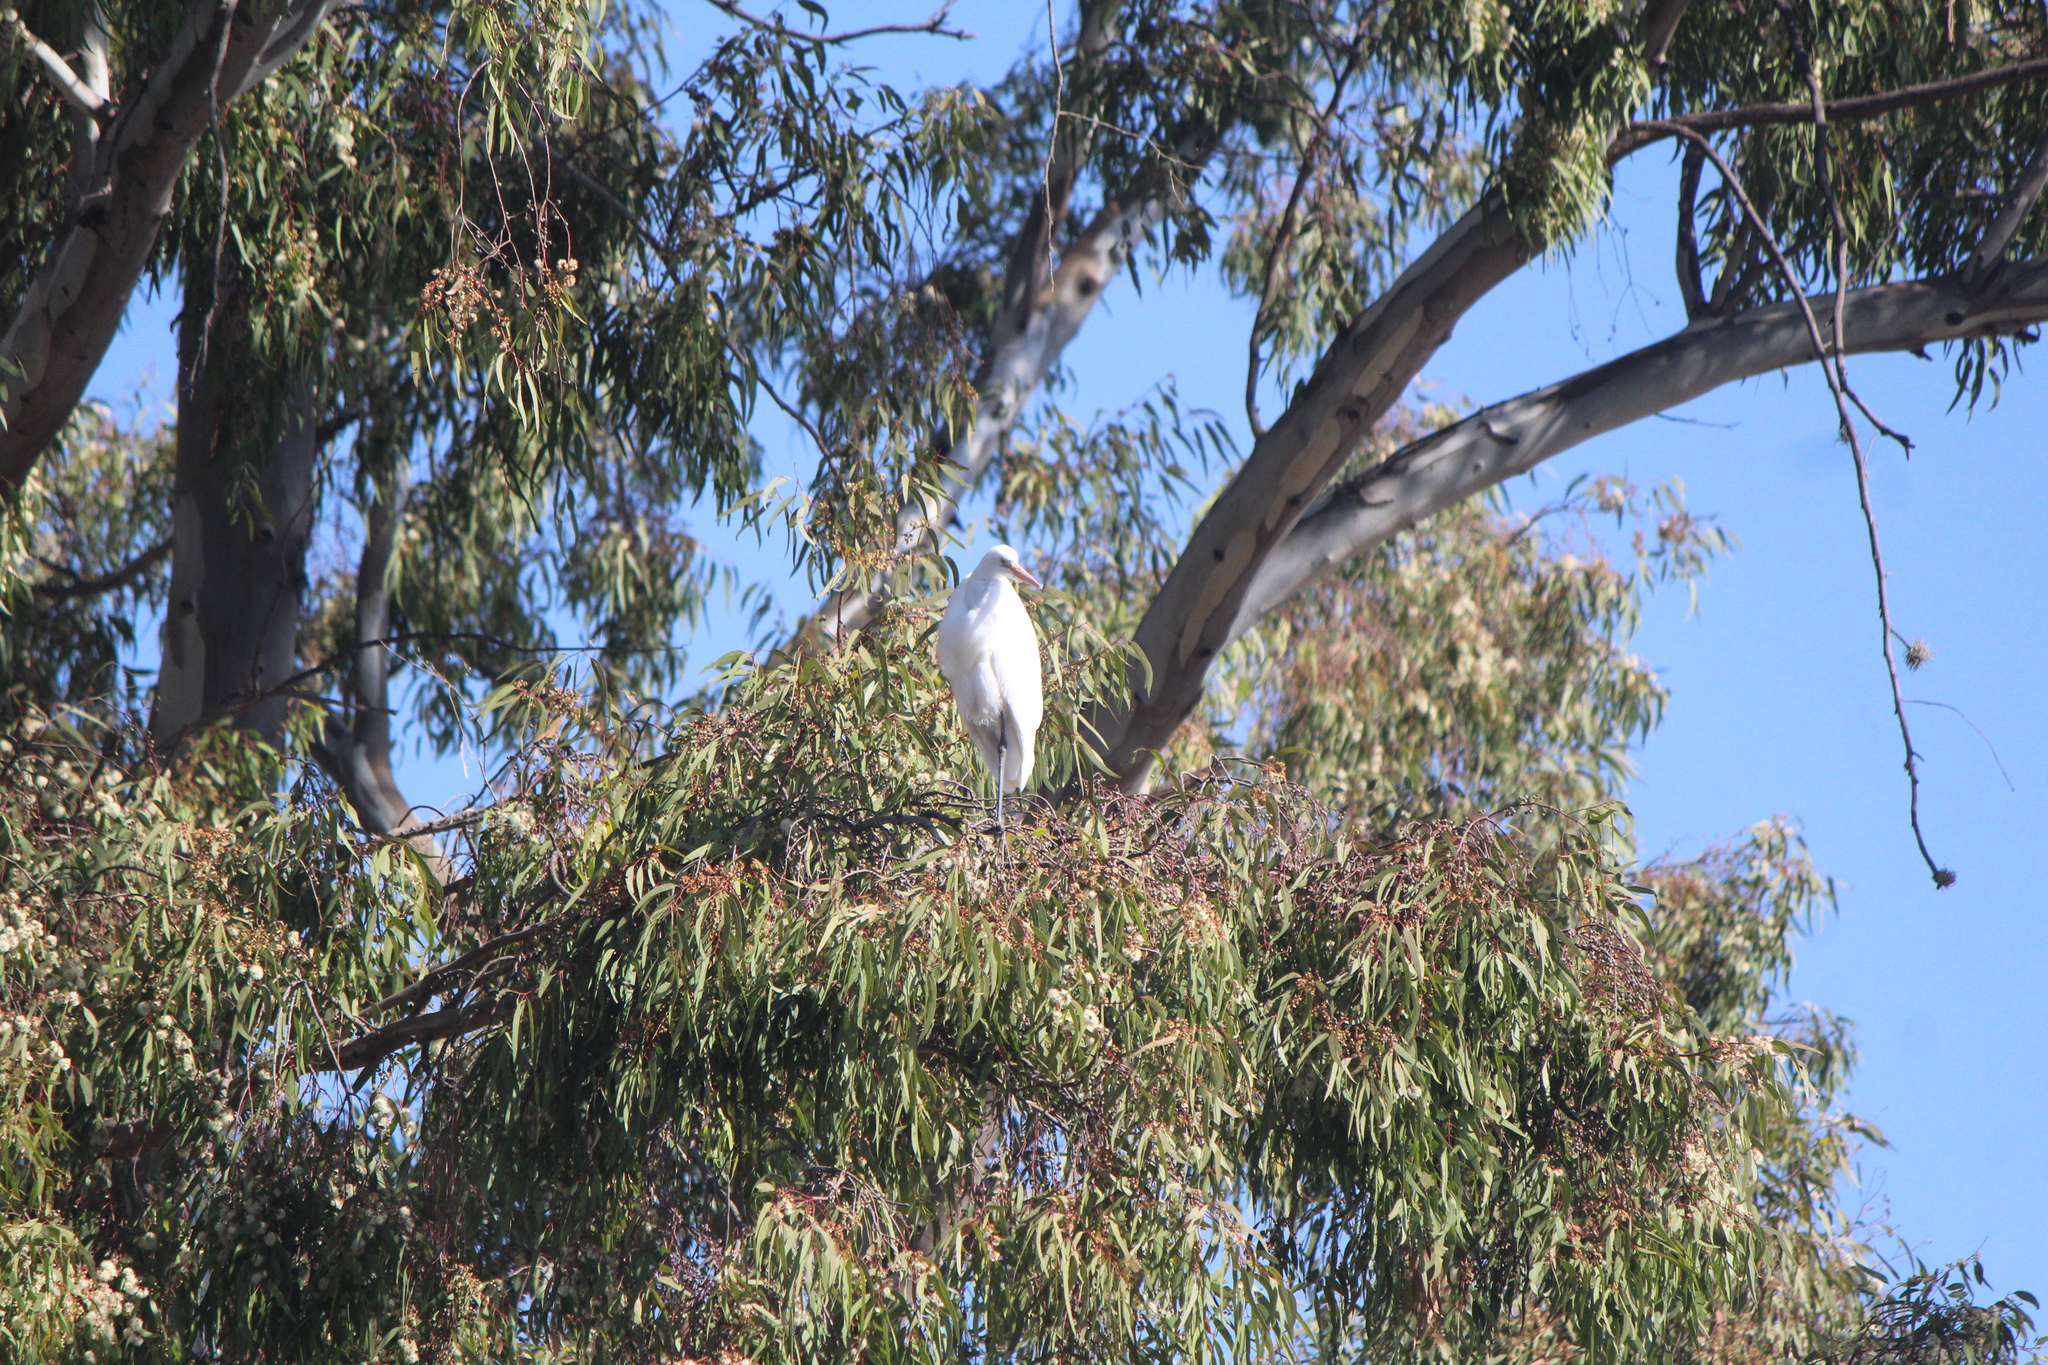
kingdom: Animalia
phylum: Chordata
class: Aves
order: Pelecaniformes
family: Ardeidae
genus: Ardea
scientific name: Ardea alba
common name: Great egret
